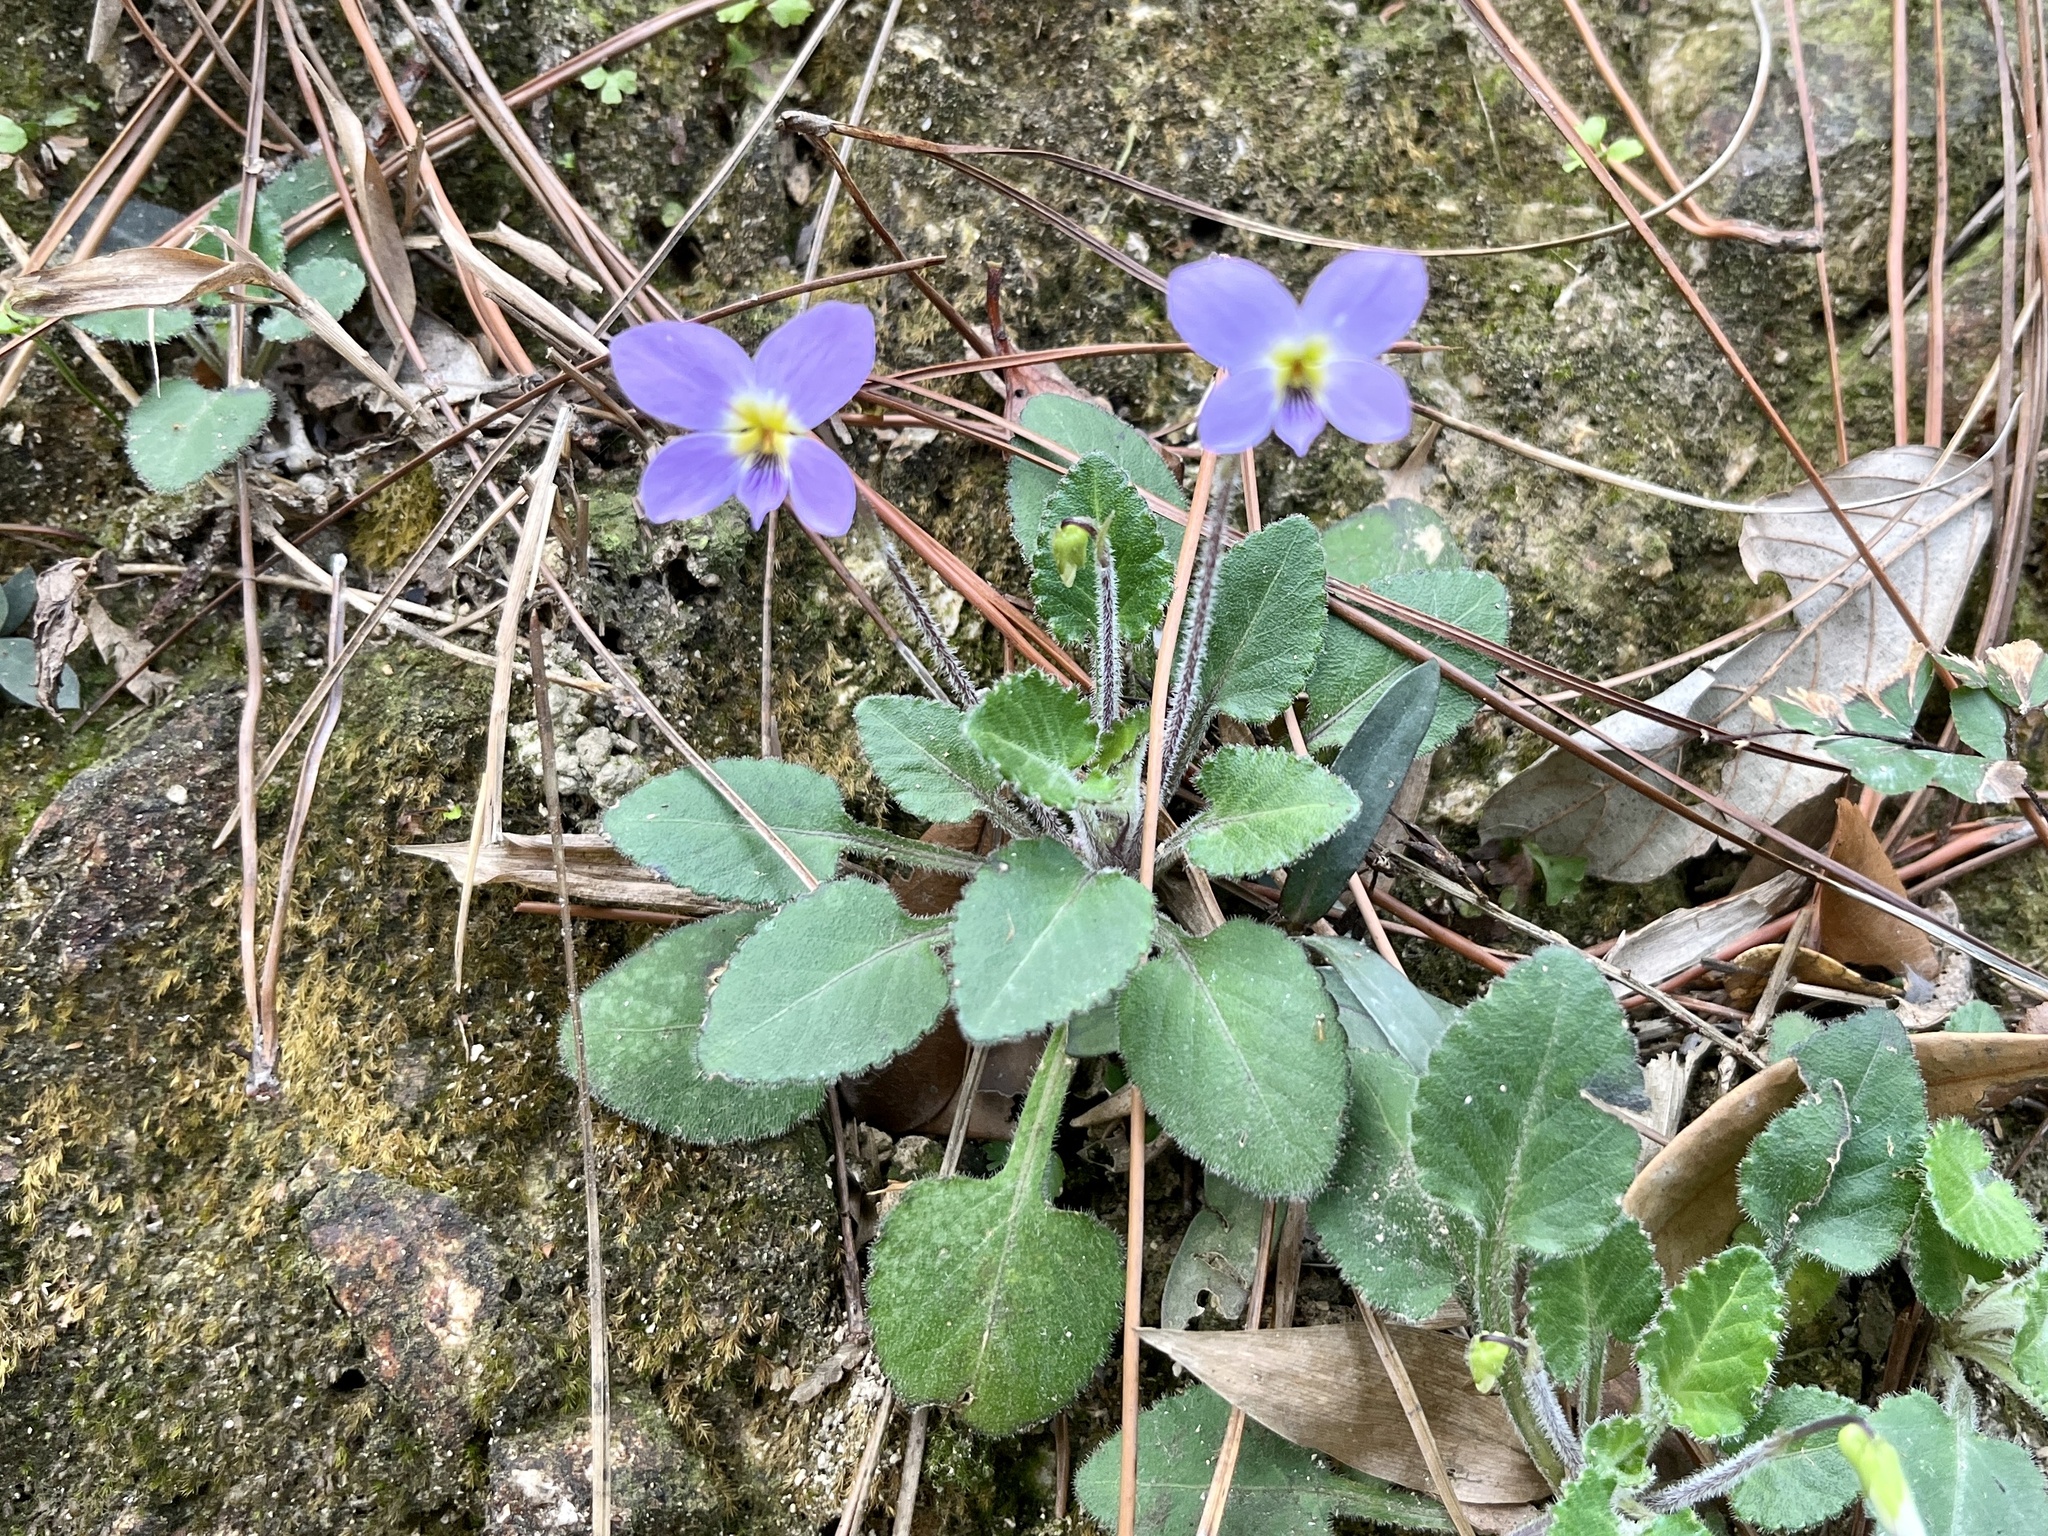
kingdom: Plantae
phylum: Tracheophyta
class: Magnoliopsida
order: Malpighiales
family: Violaceae
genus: Viola
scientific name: Viola diffusa
